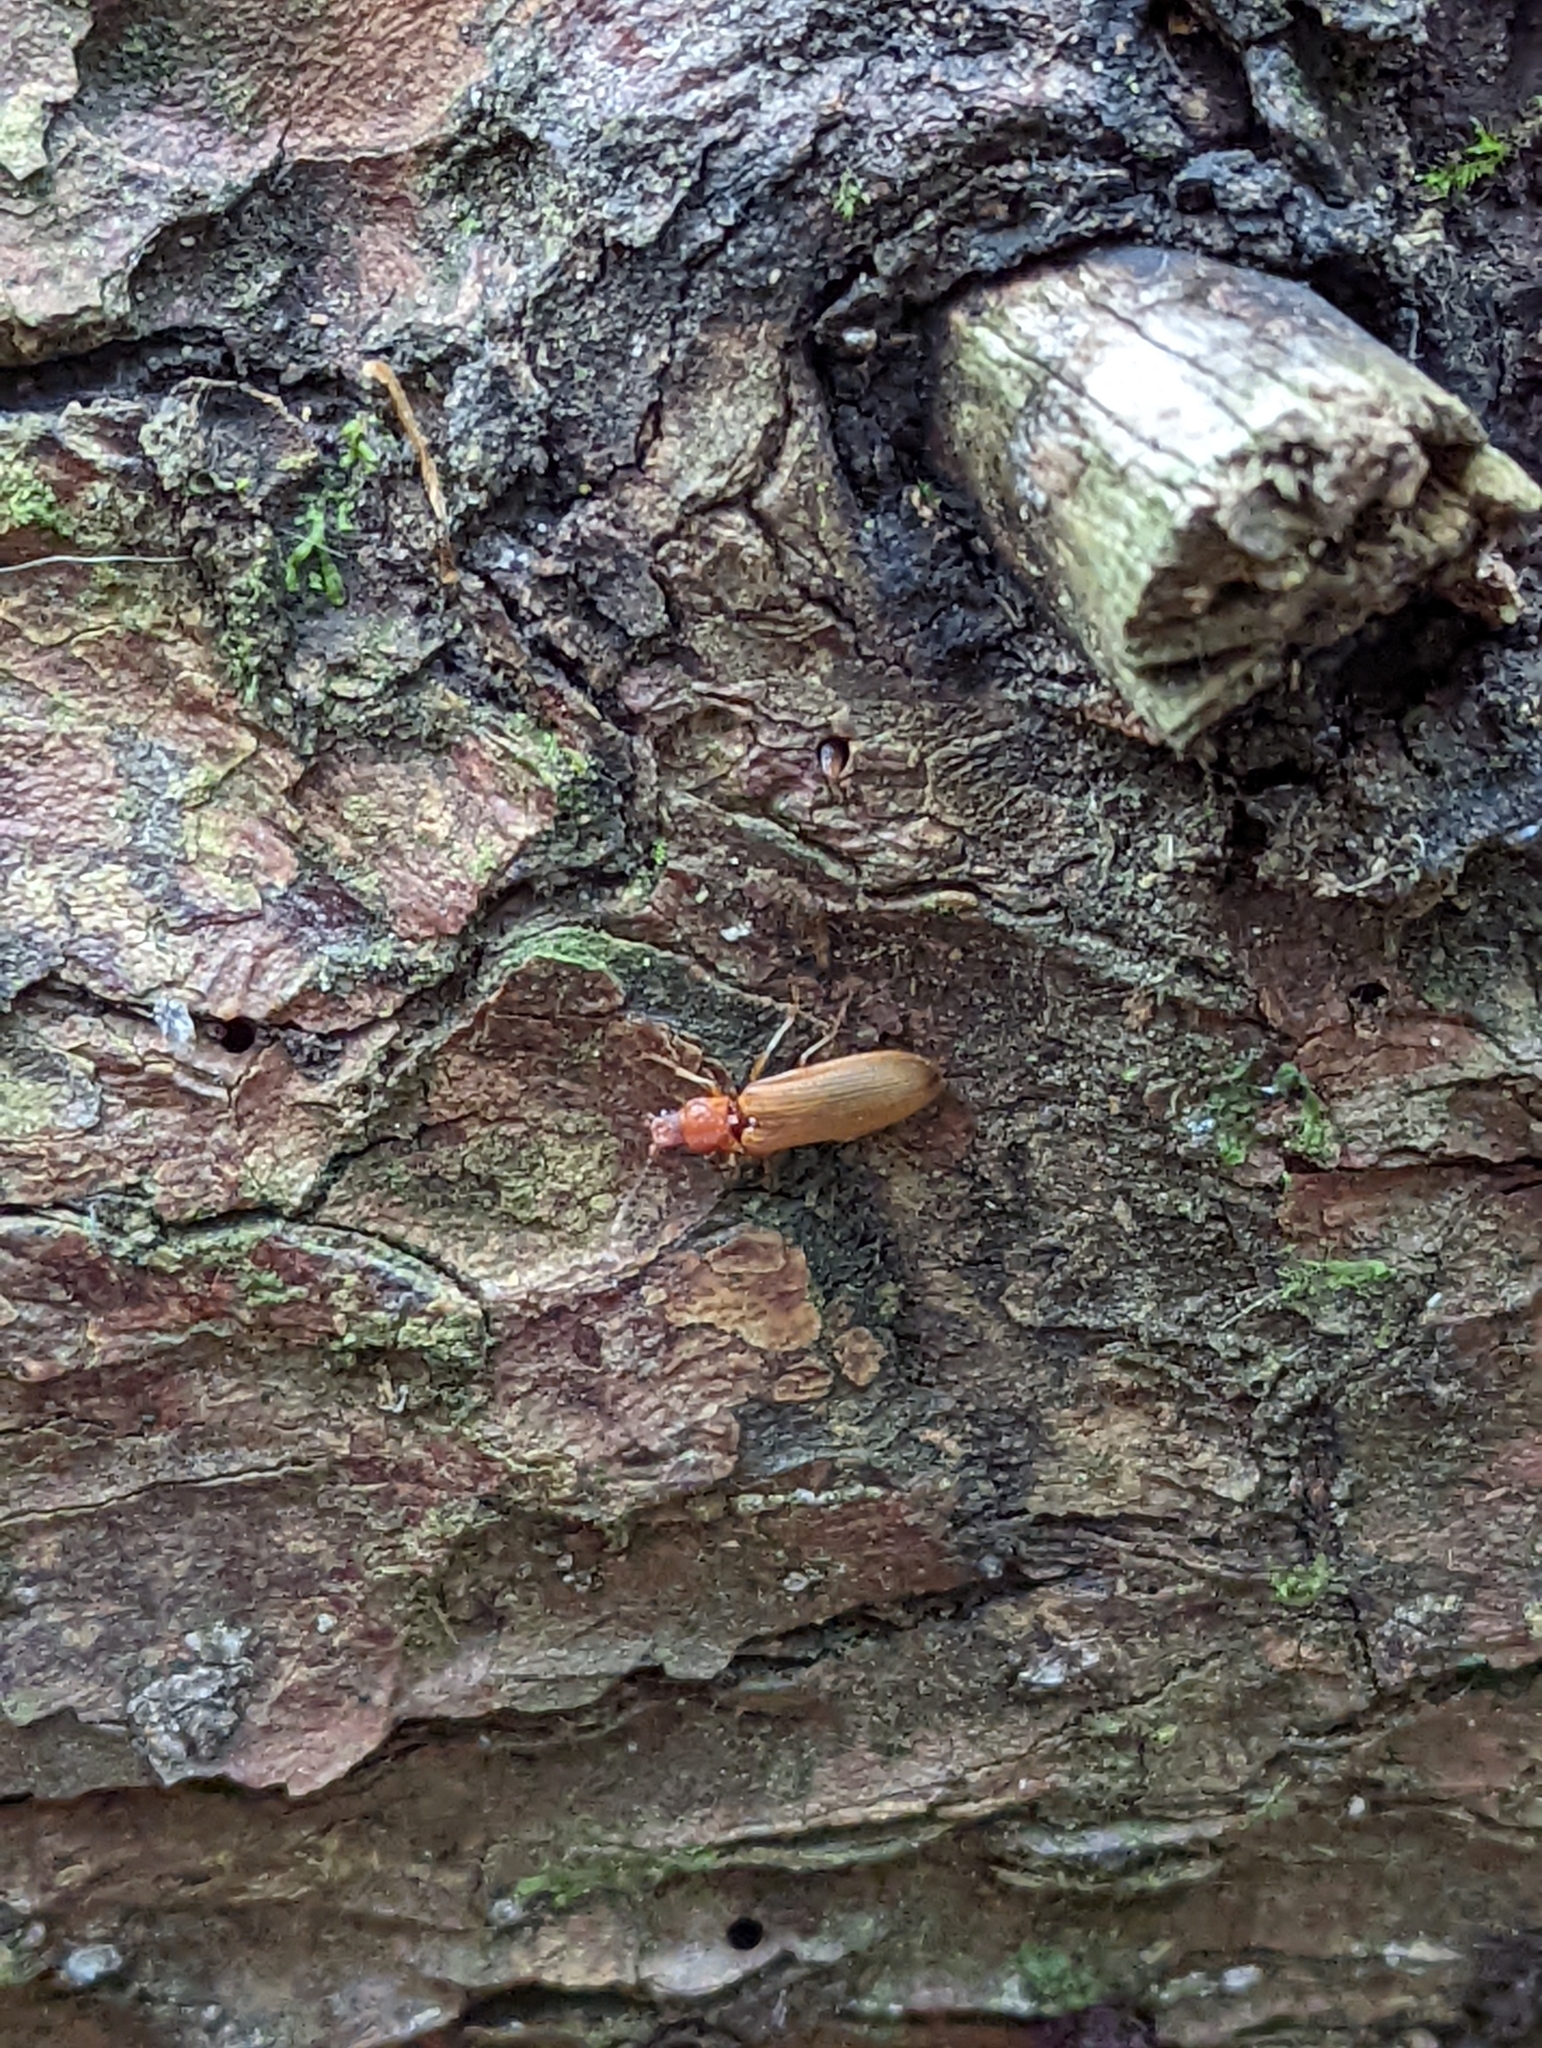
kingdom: Animalia
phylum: Arthropoda
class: Insecta
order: Coleoptera
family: Elateridae
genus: Denticollis
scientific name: Denticollis linearis
